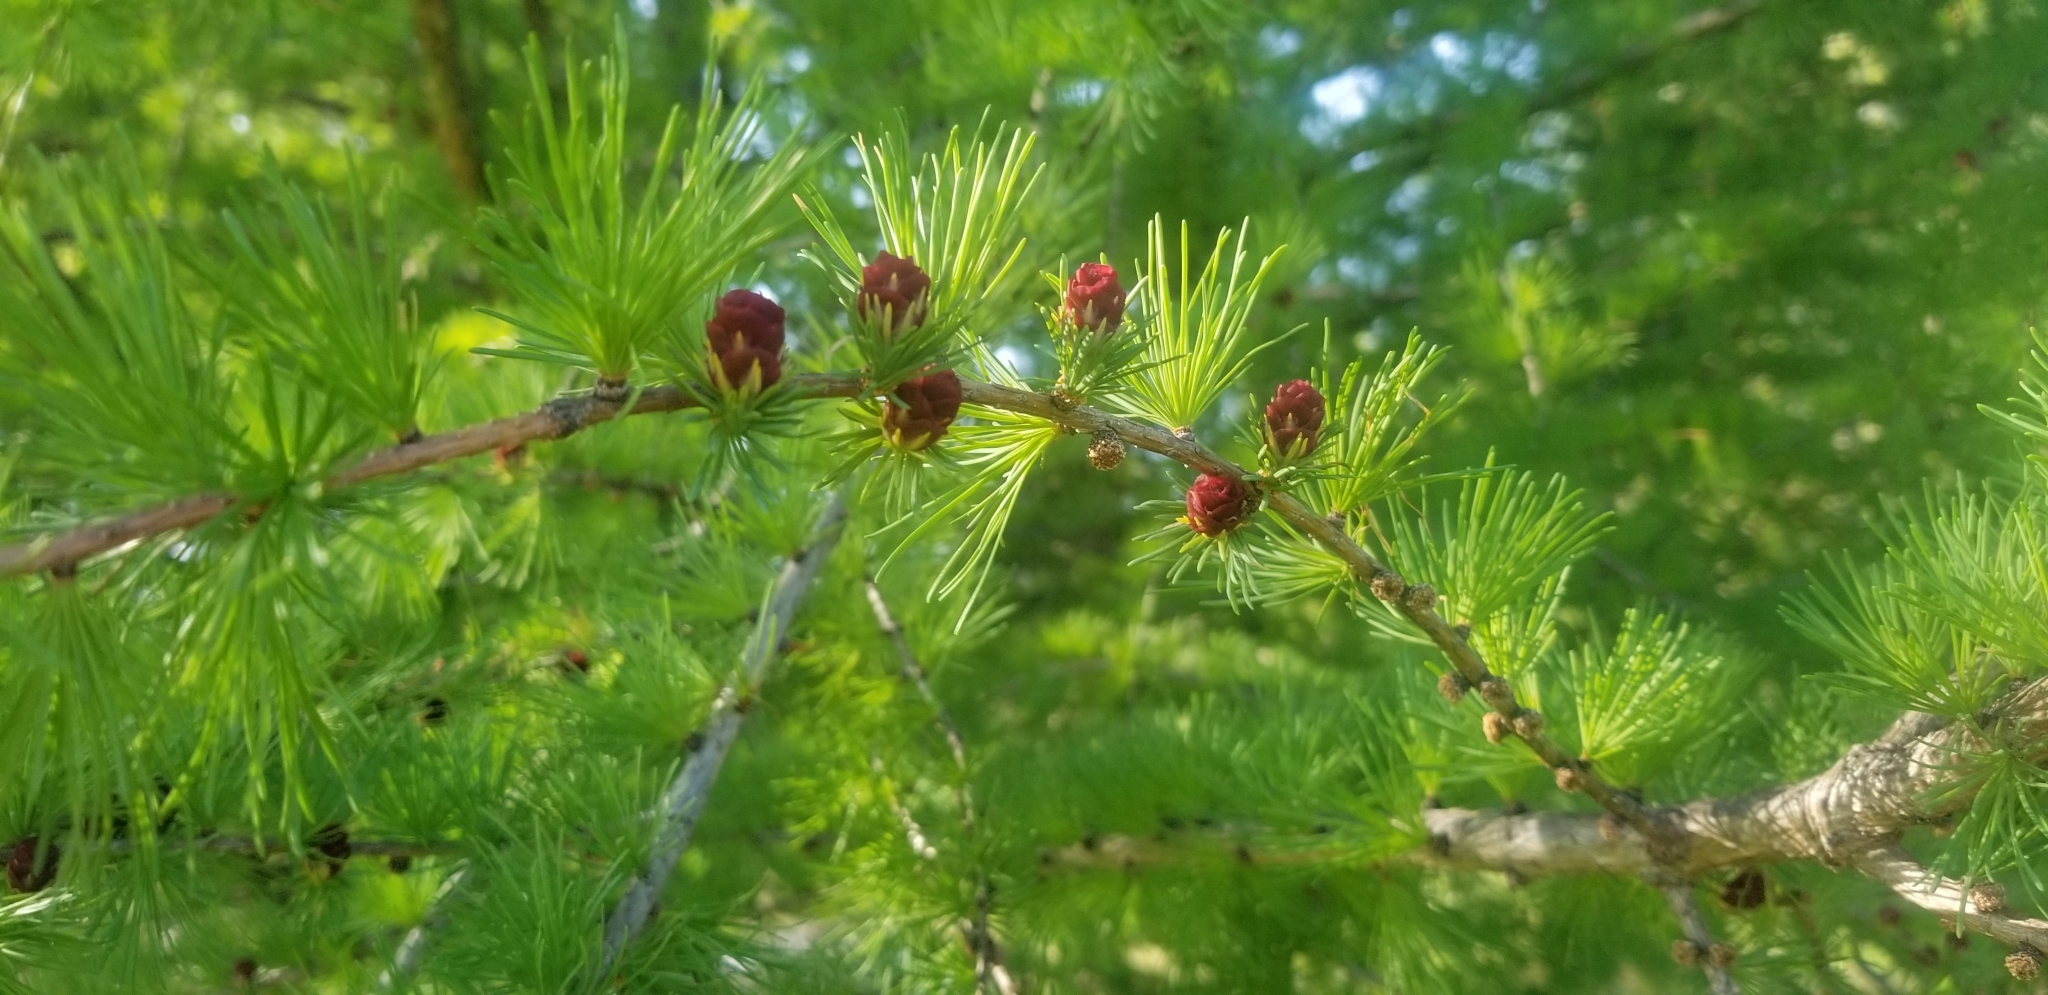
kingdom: Plantae
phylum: Tracheophyta
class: Pinopsida
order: Pinales
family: Pinaceae
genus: Larix
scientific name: Larix laricina
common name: American larch
